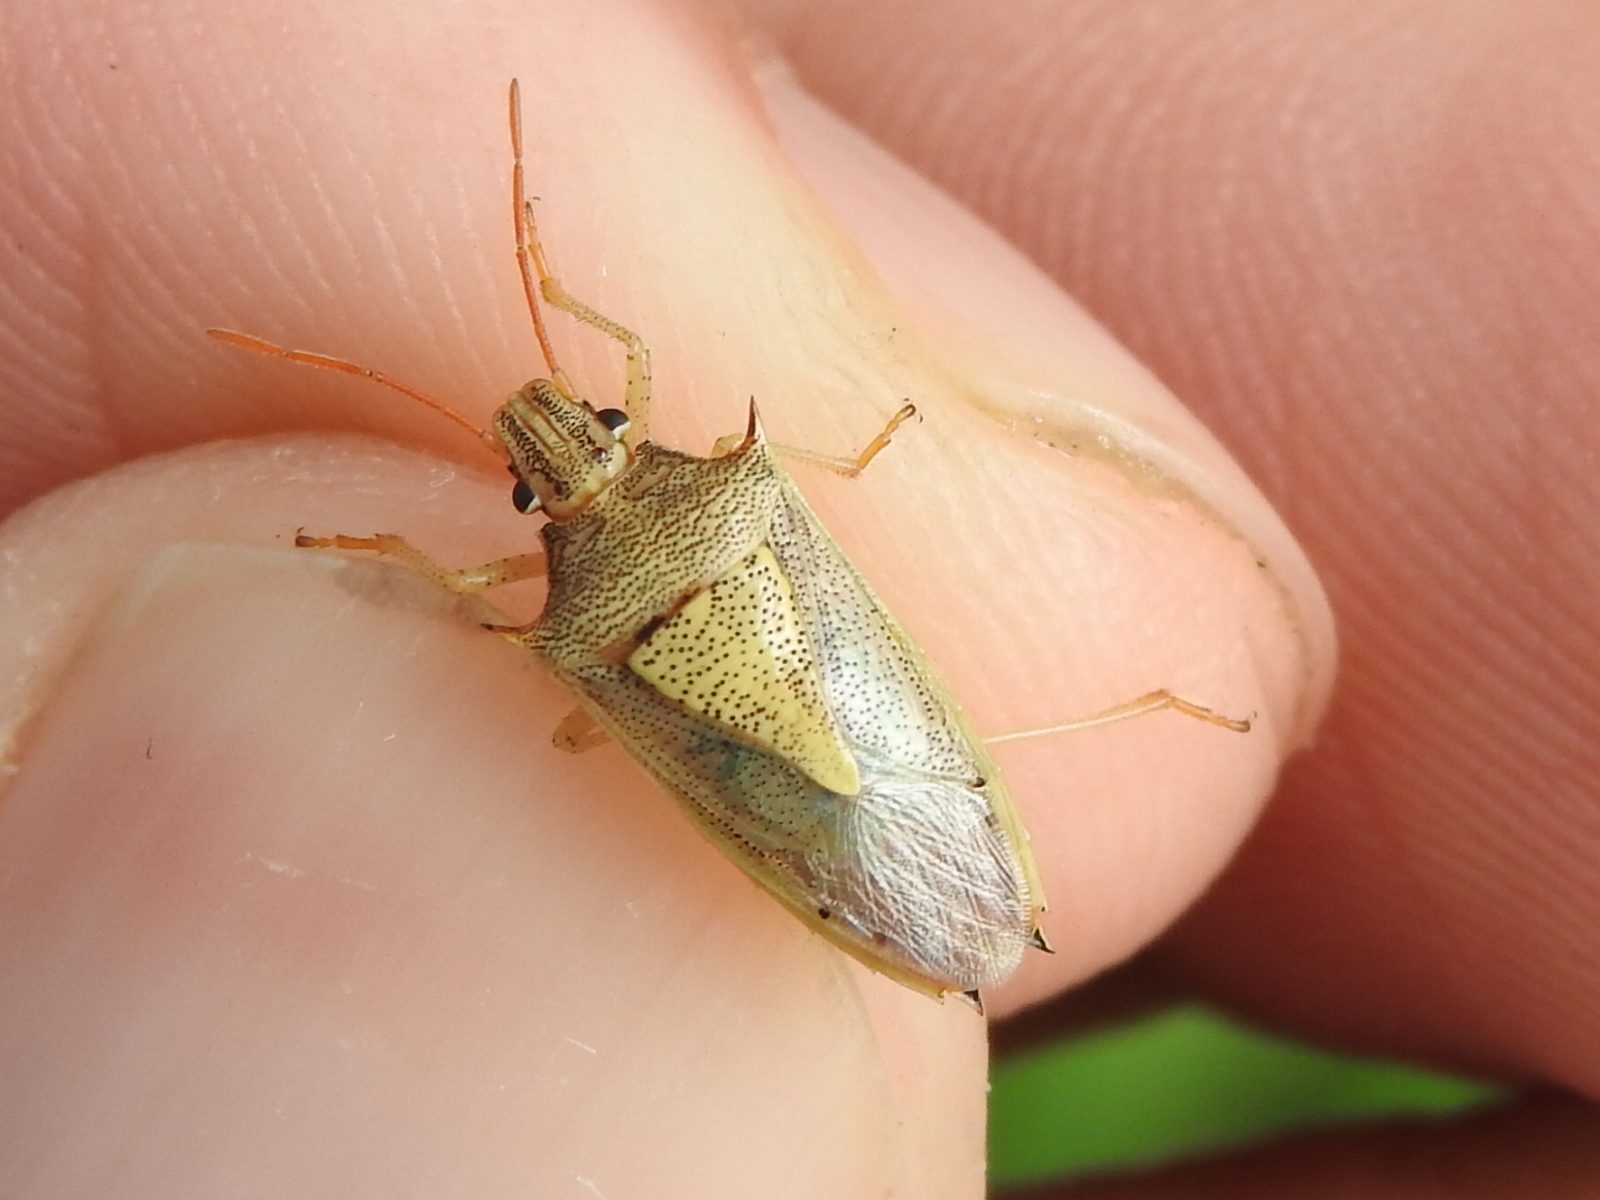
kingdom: Animalia
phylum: Arthropoda
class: Insecta
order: Hemiptera
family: Pentatomidae
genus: Oebalus
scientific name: Oebalus pugnax
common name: Rice stink bug
